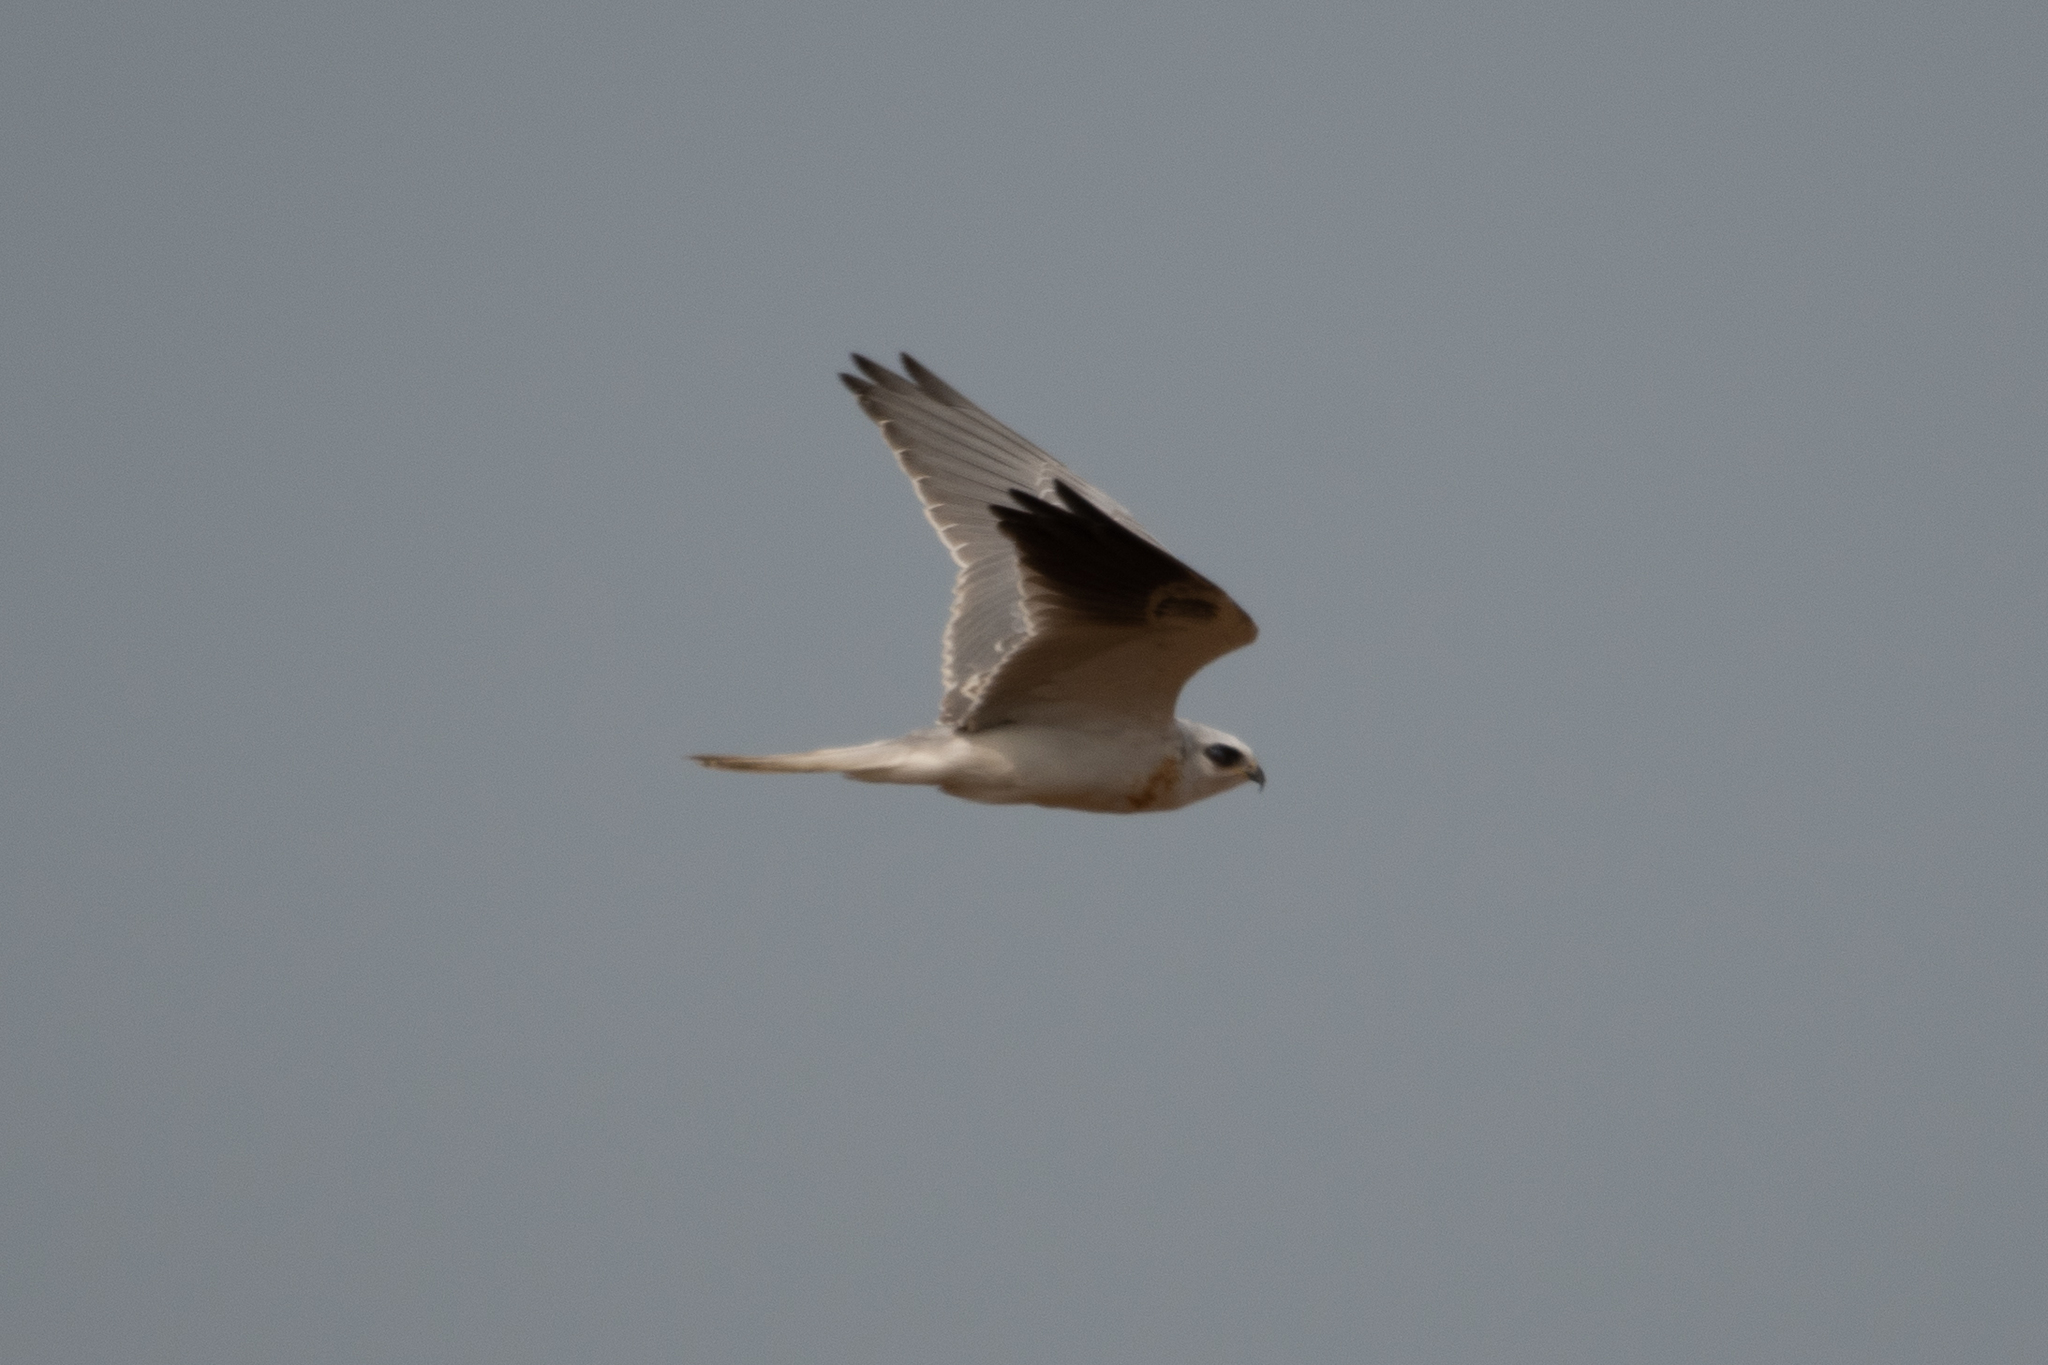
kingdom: Animalia
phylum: Chordata
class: Aves
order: Accipitriformes
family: Accipitridae
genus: Elanus
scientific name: Elanus leucurus
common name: White-tailed kite
